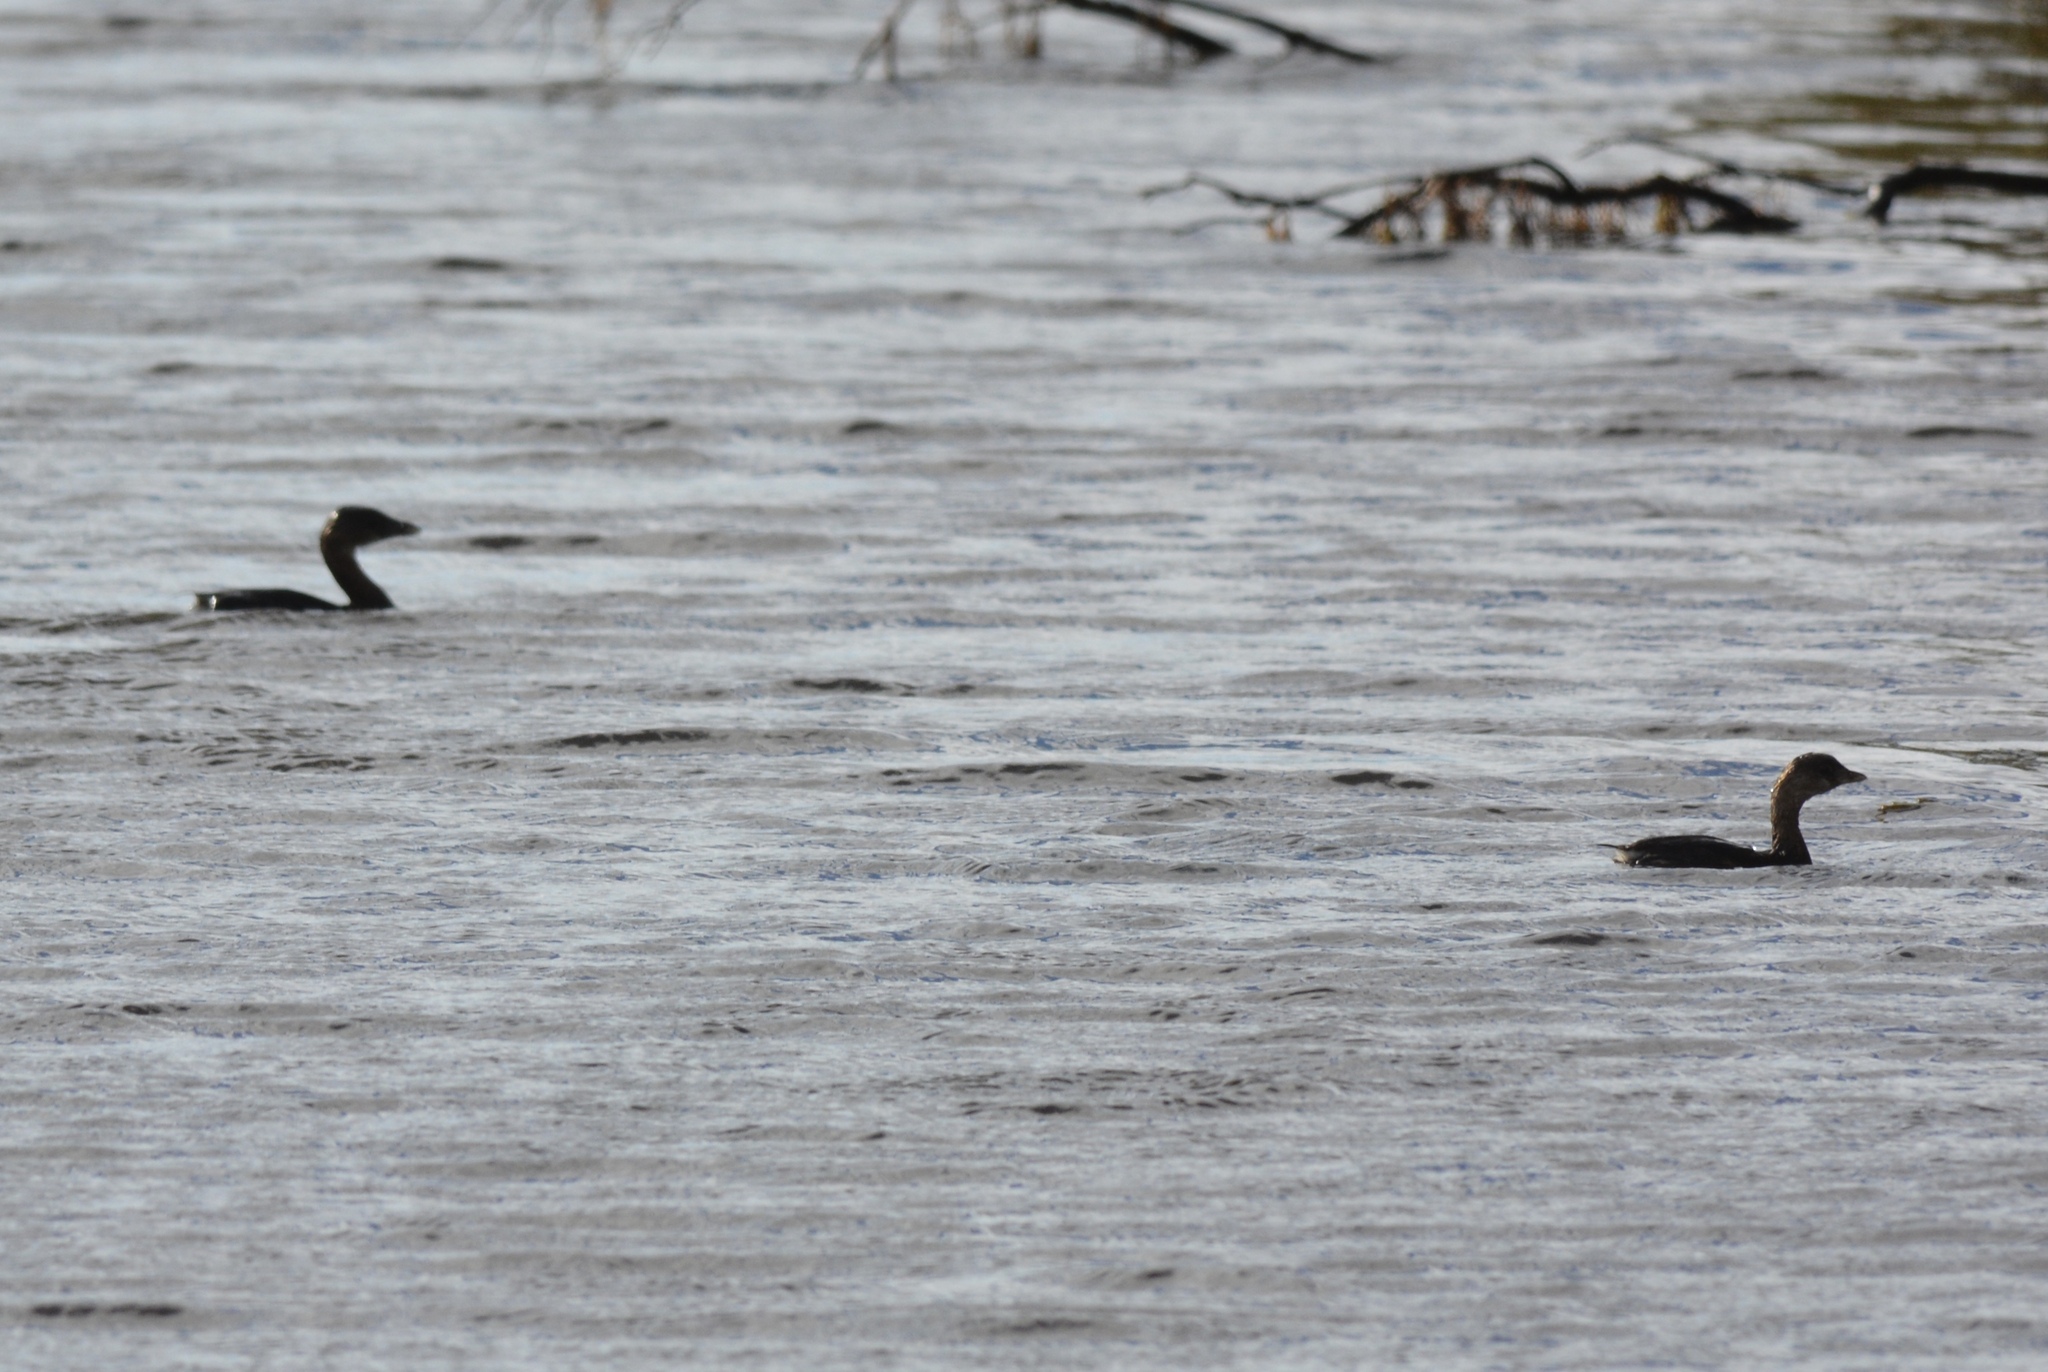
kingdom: Animalia
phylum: Chordata
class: Aves
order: Podicipediformes
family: Podicipedidae
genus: Podilymbus
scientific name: Podilymbus podiceps
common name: Pied-billed grebe
